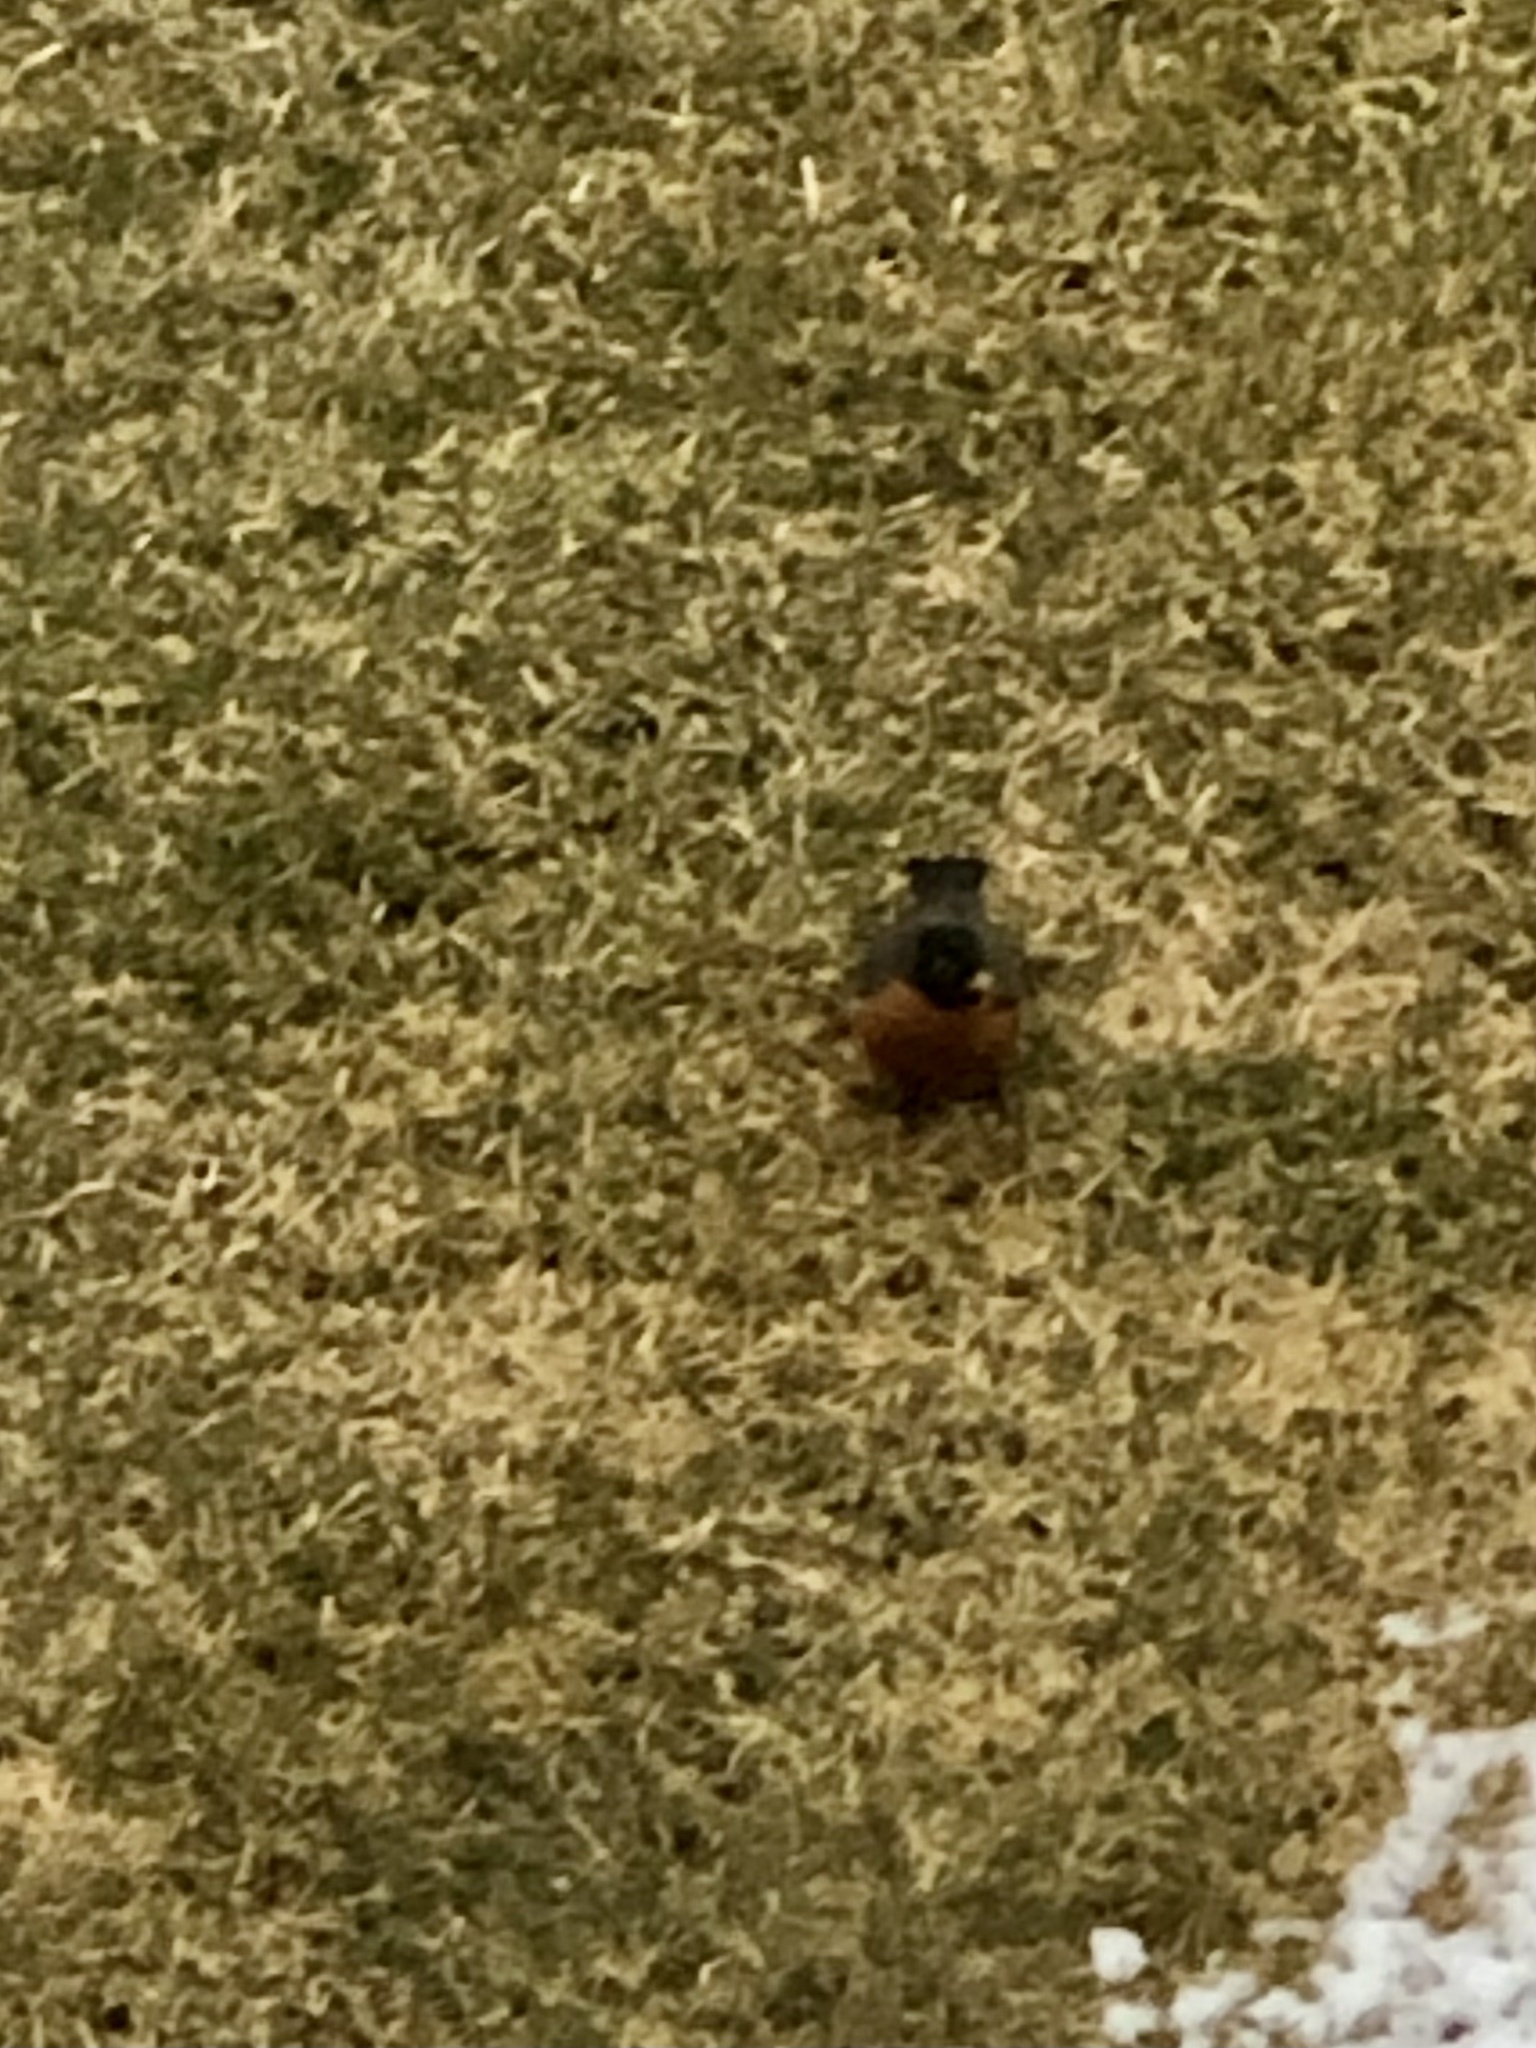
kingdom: Animalia
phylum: Chordata
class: Aves
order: Passeriformes
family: Turdidae
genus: Turdus
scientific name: Turdus migratorius
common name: American robin
